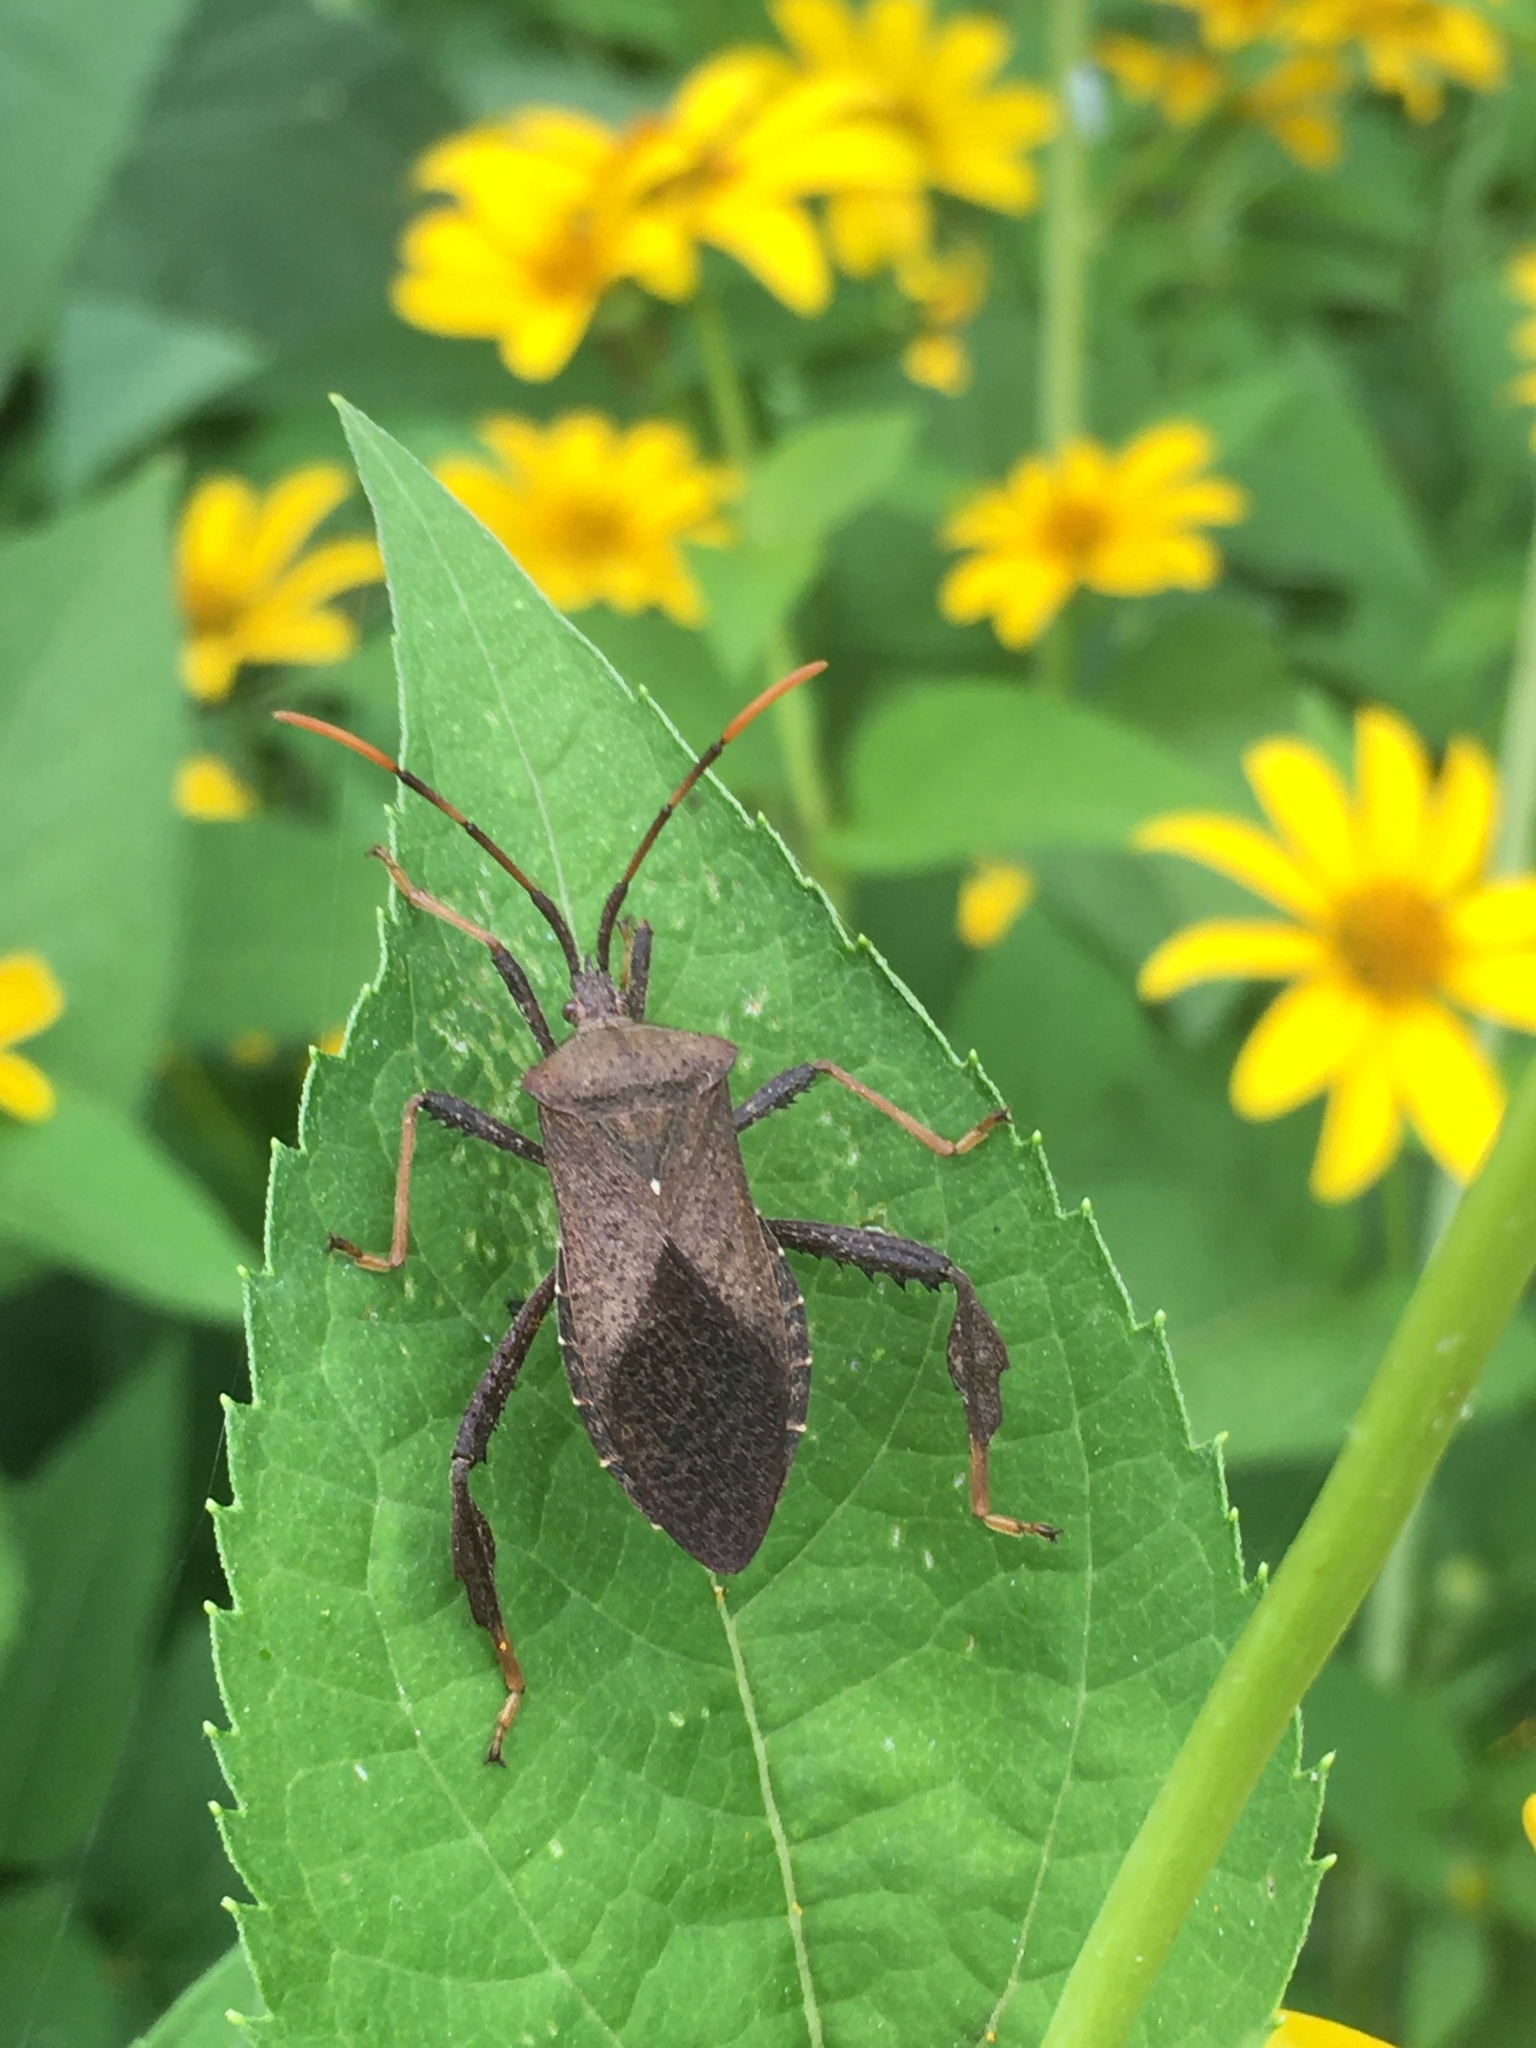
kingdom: Animalia
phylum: Arthropoda
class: Insecta
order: Hemiptera
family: Coreidae
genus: Acanthocephala
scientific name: Acanthocephala terminalis
